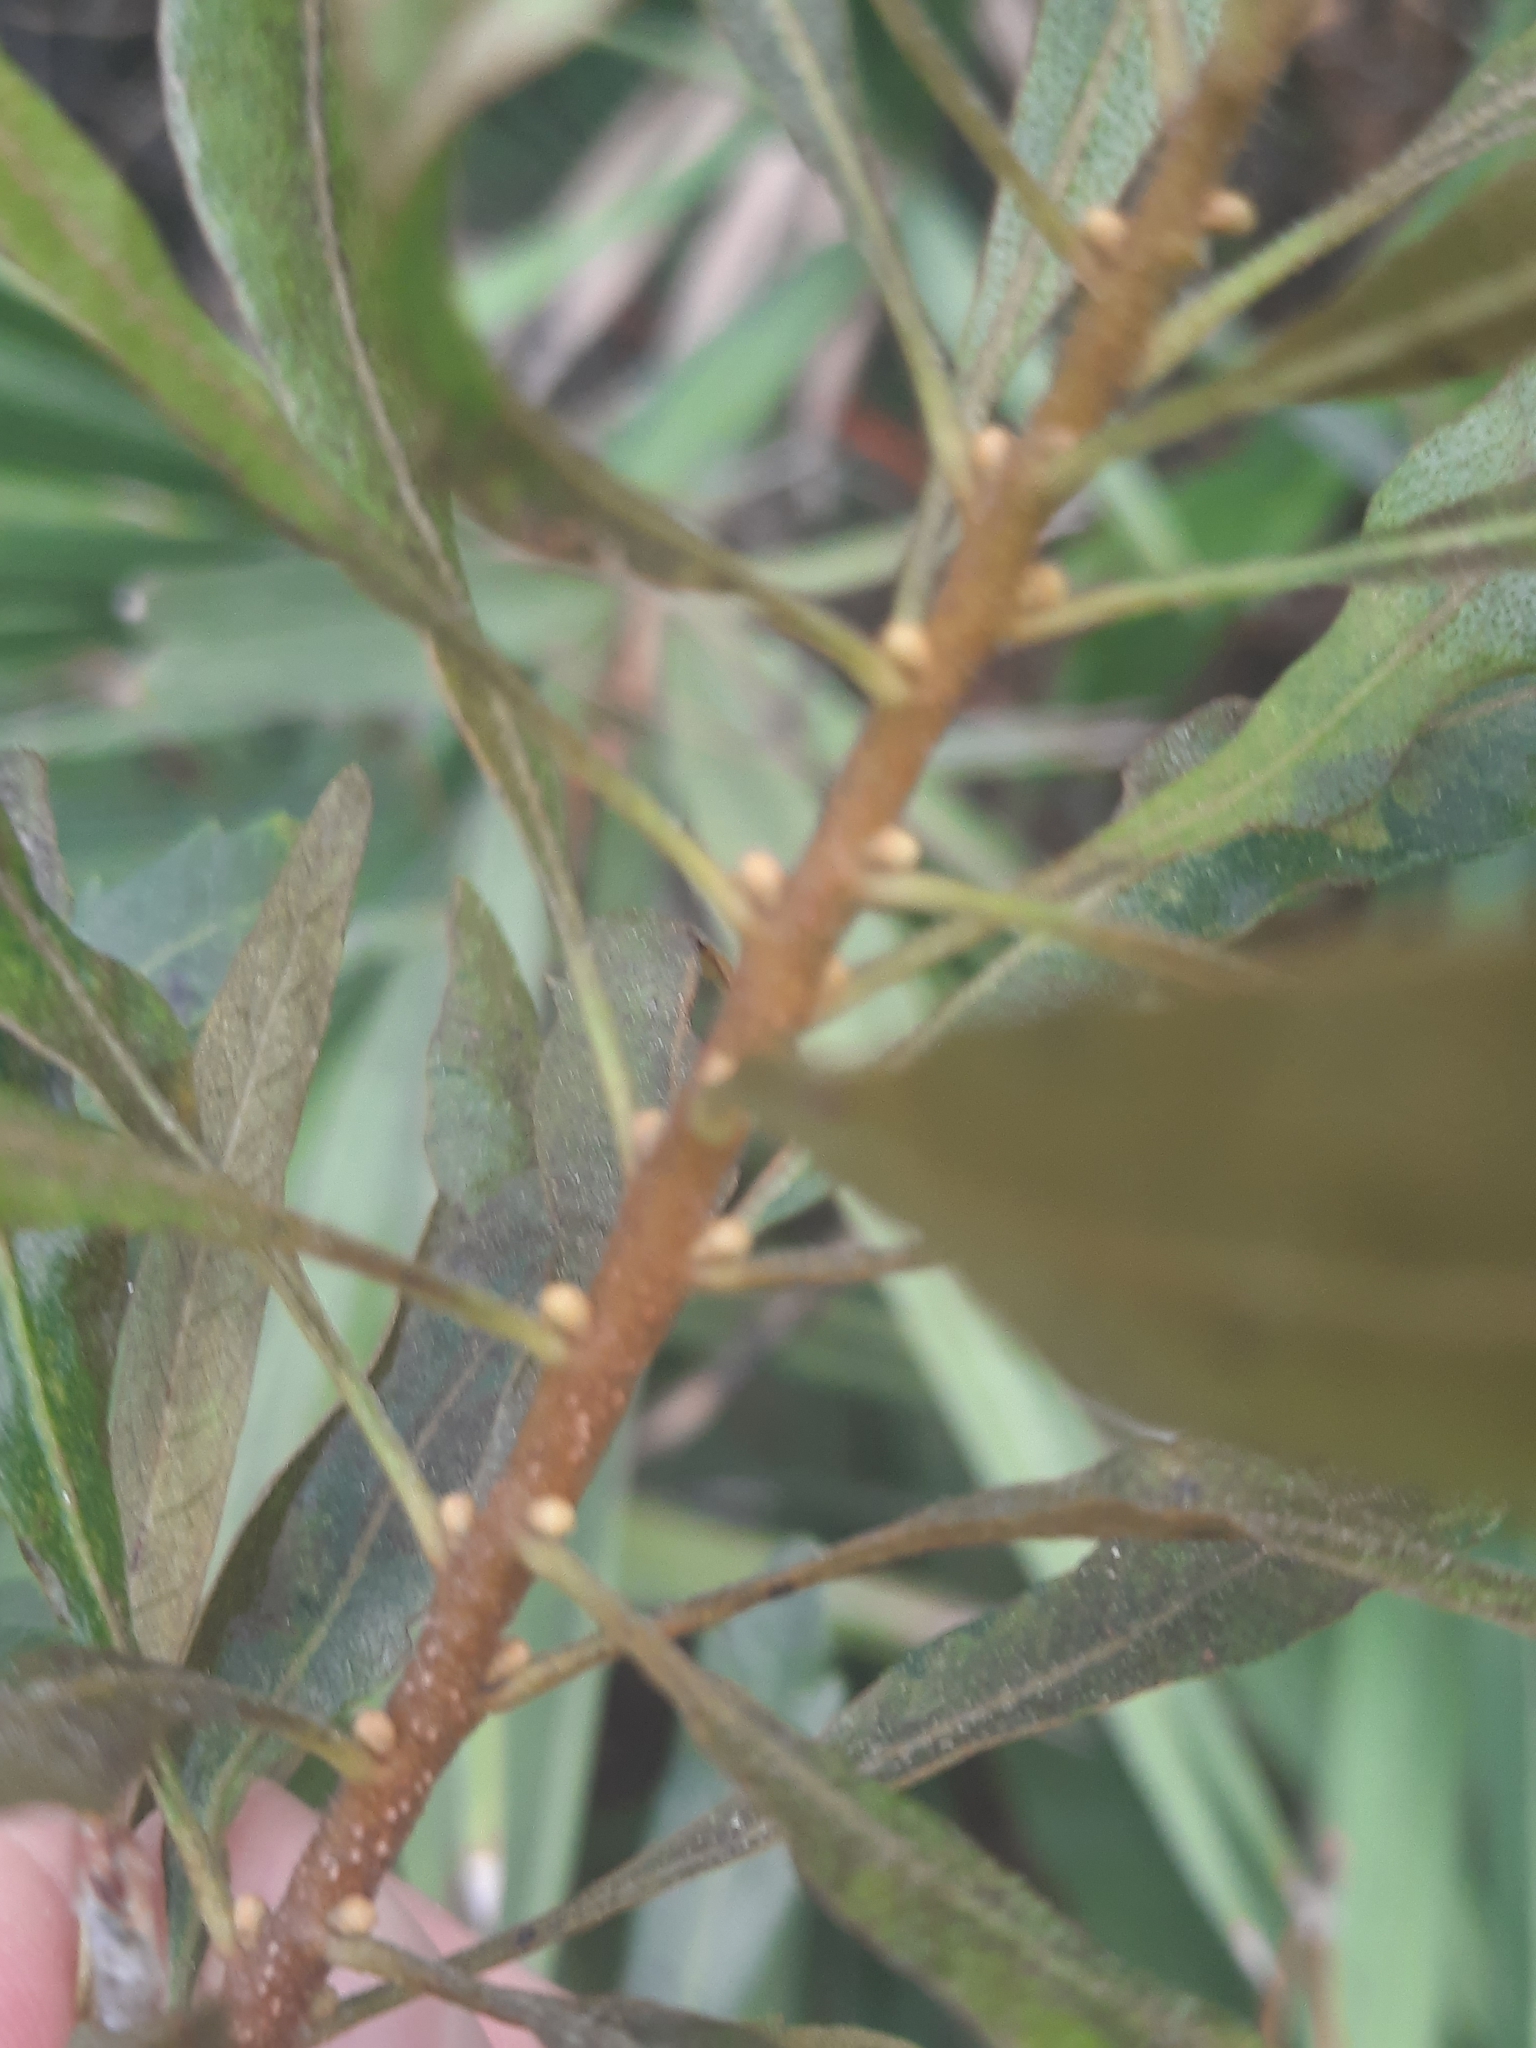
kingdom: Plantae
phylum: Tracheophyta
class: Magnoliopsida
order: Fagales
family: Myricaceae
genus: Morella
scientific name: Morella cerifera
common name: Wax myrtle
